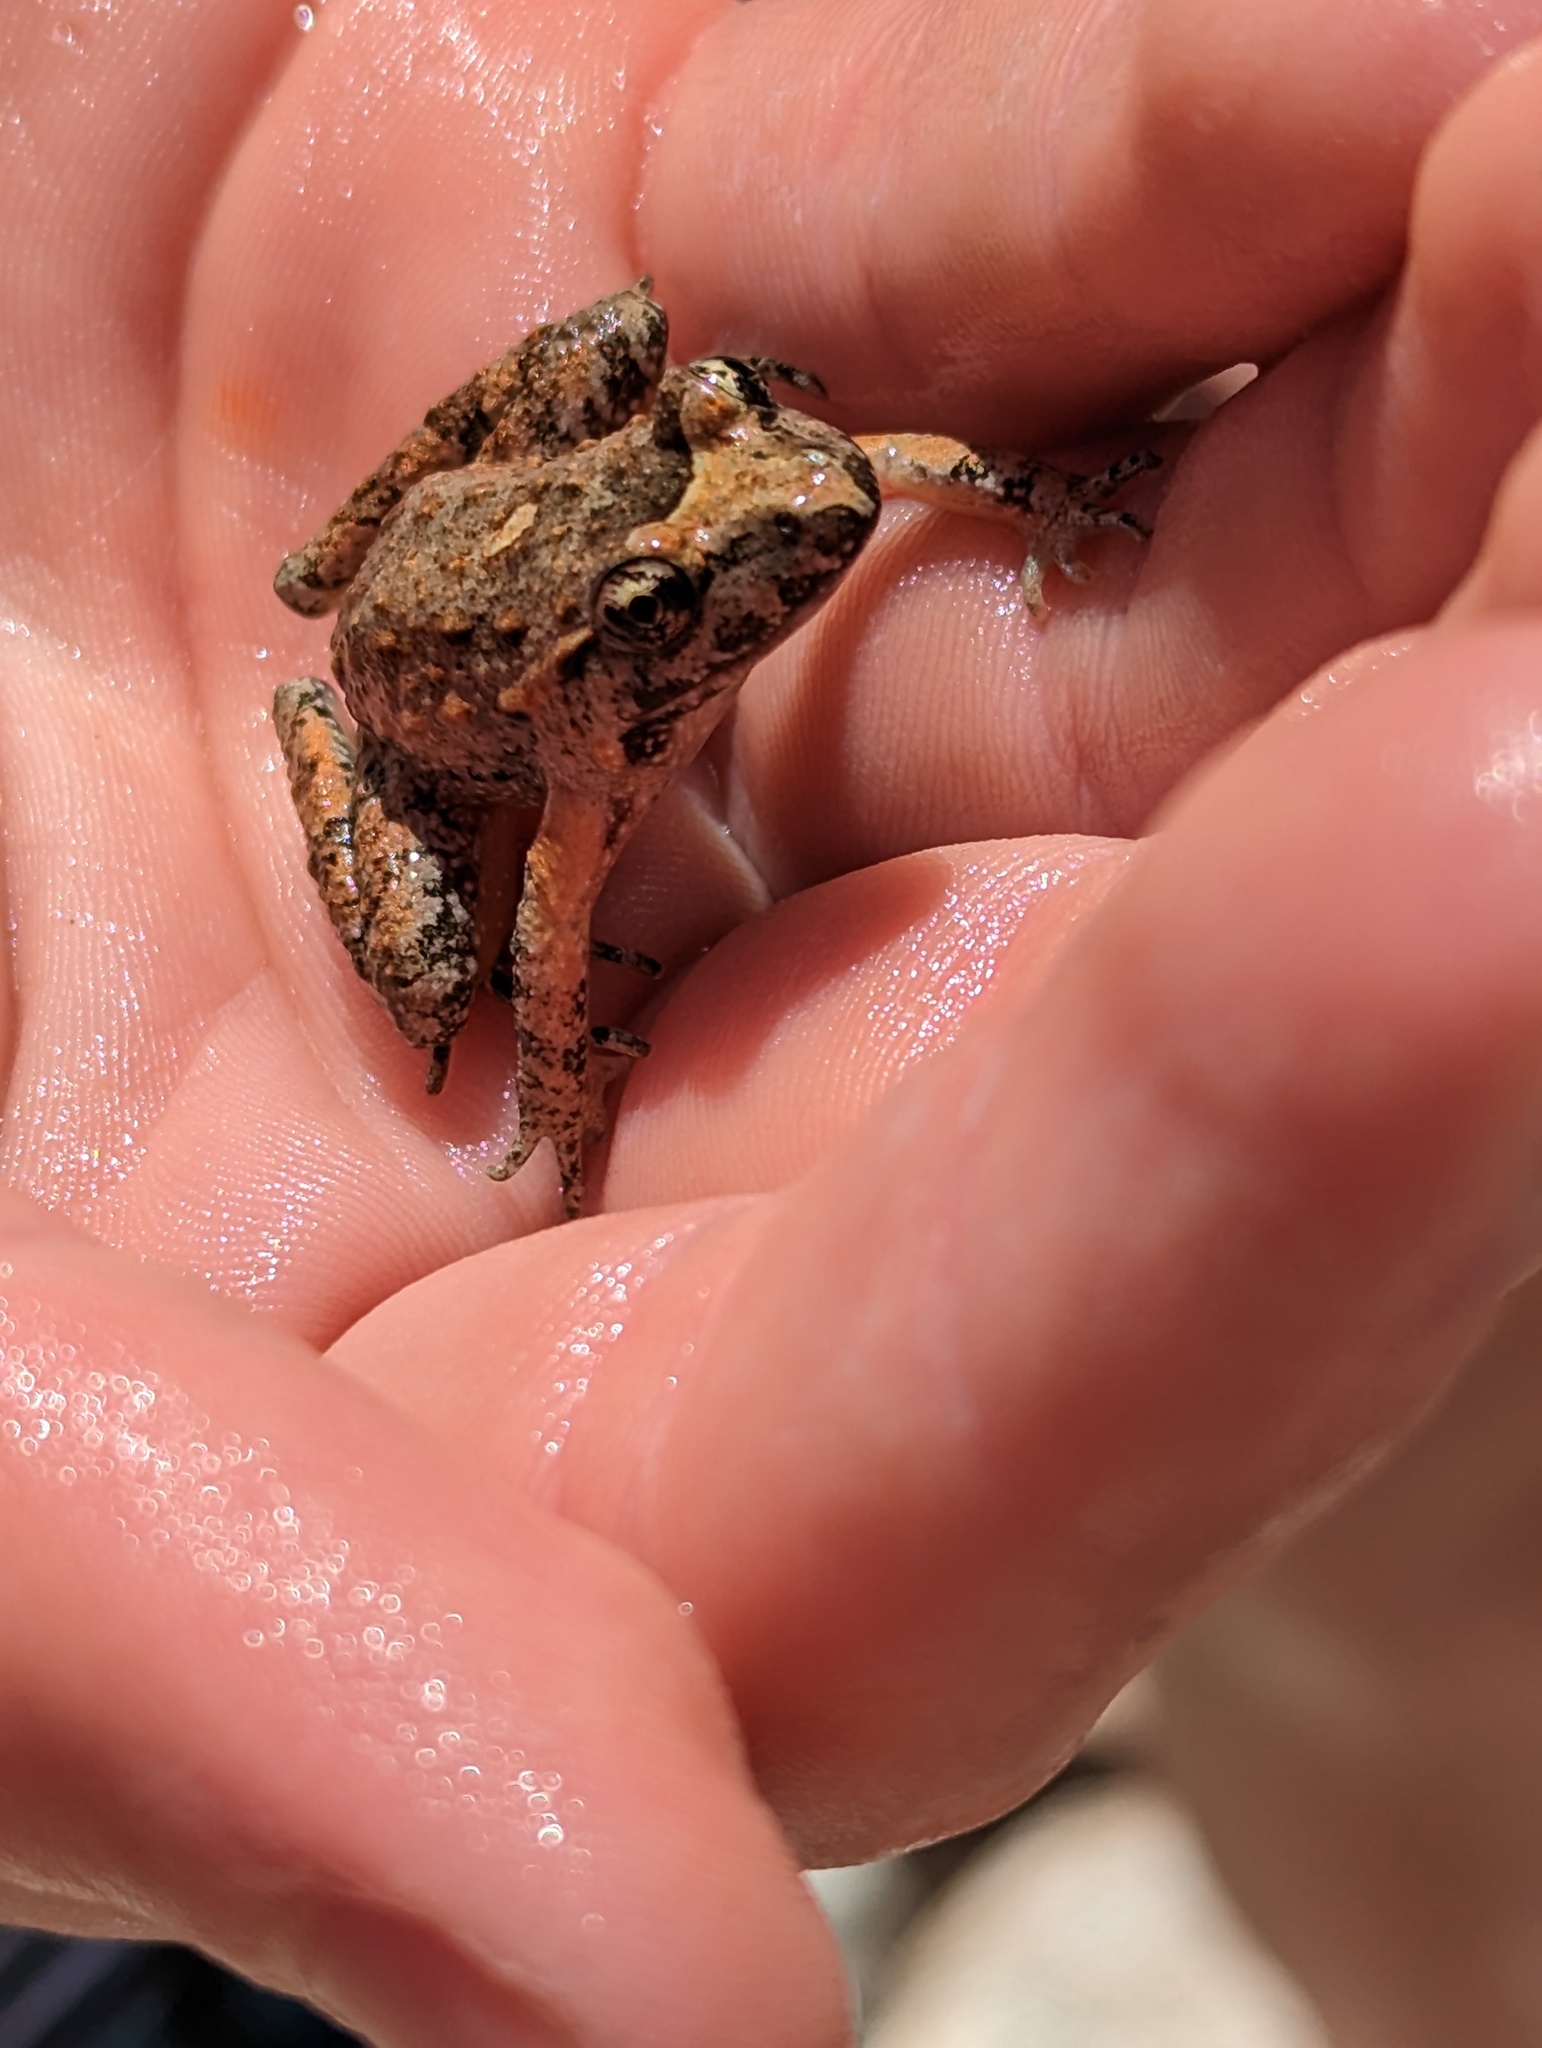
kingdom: Animalia
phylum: Chordata
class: Amphibia
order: Anura
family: Alytidae
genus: Discoglossus
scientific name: Discoglossus sardus
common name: Sardinia painted frog
